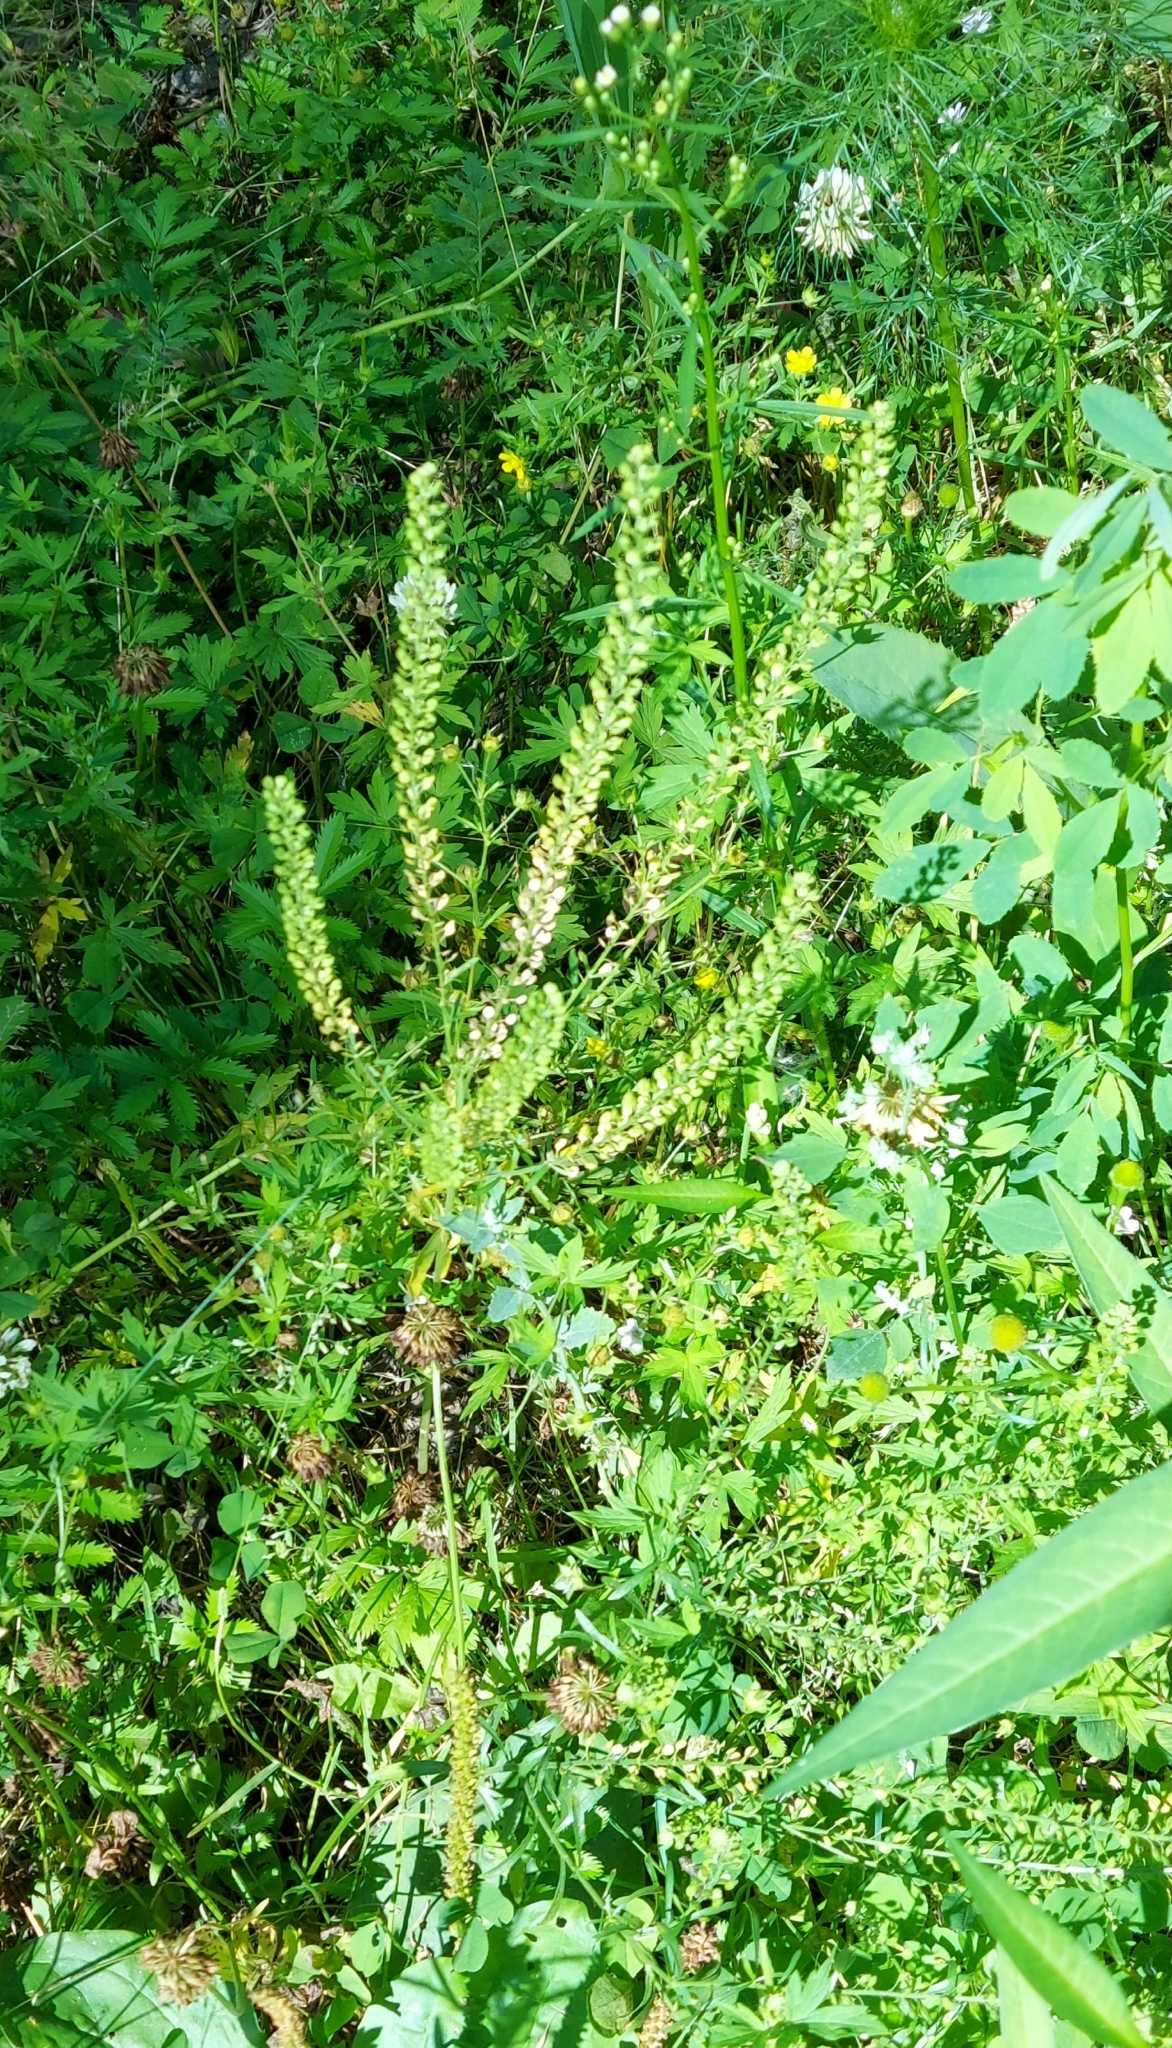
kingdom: Plantae
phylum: Tracheophyta
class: Magnoliopsida
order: Brassicales
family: Brassicaceae
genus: Lepidium
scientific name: Lepidium densiflorum
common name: Miner's pepperwort
